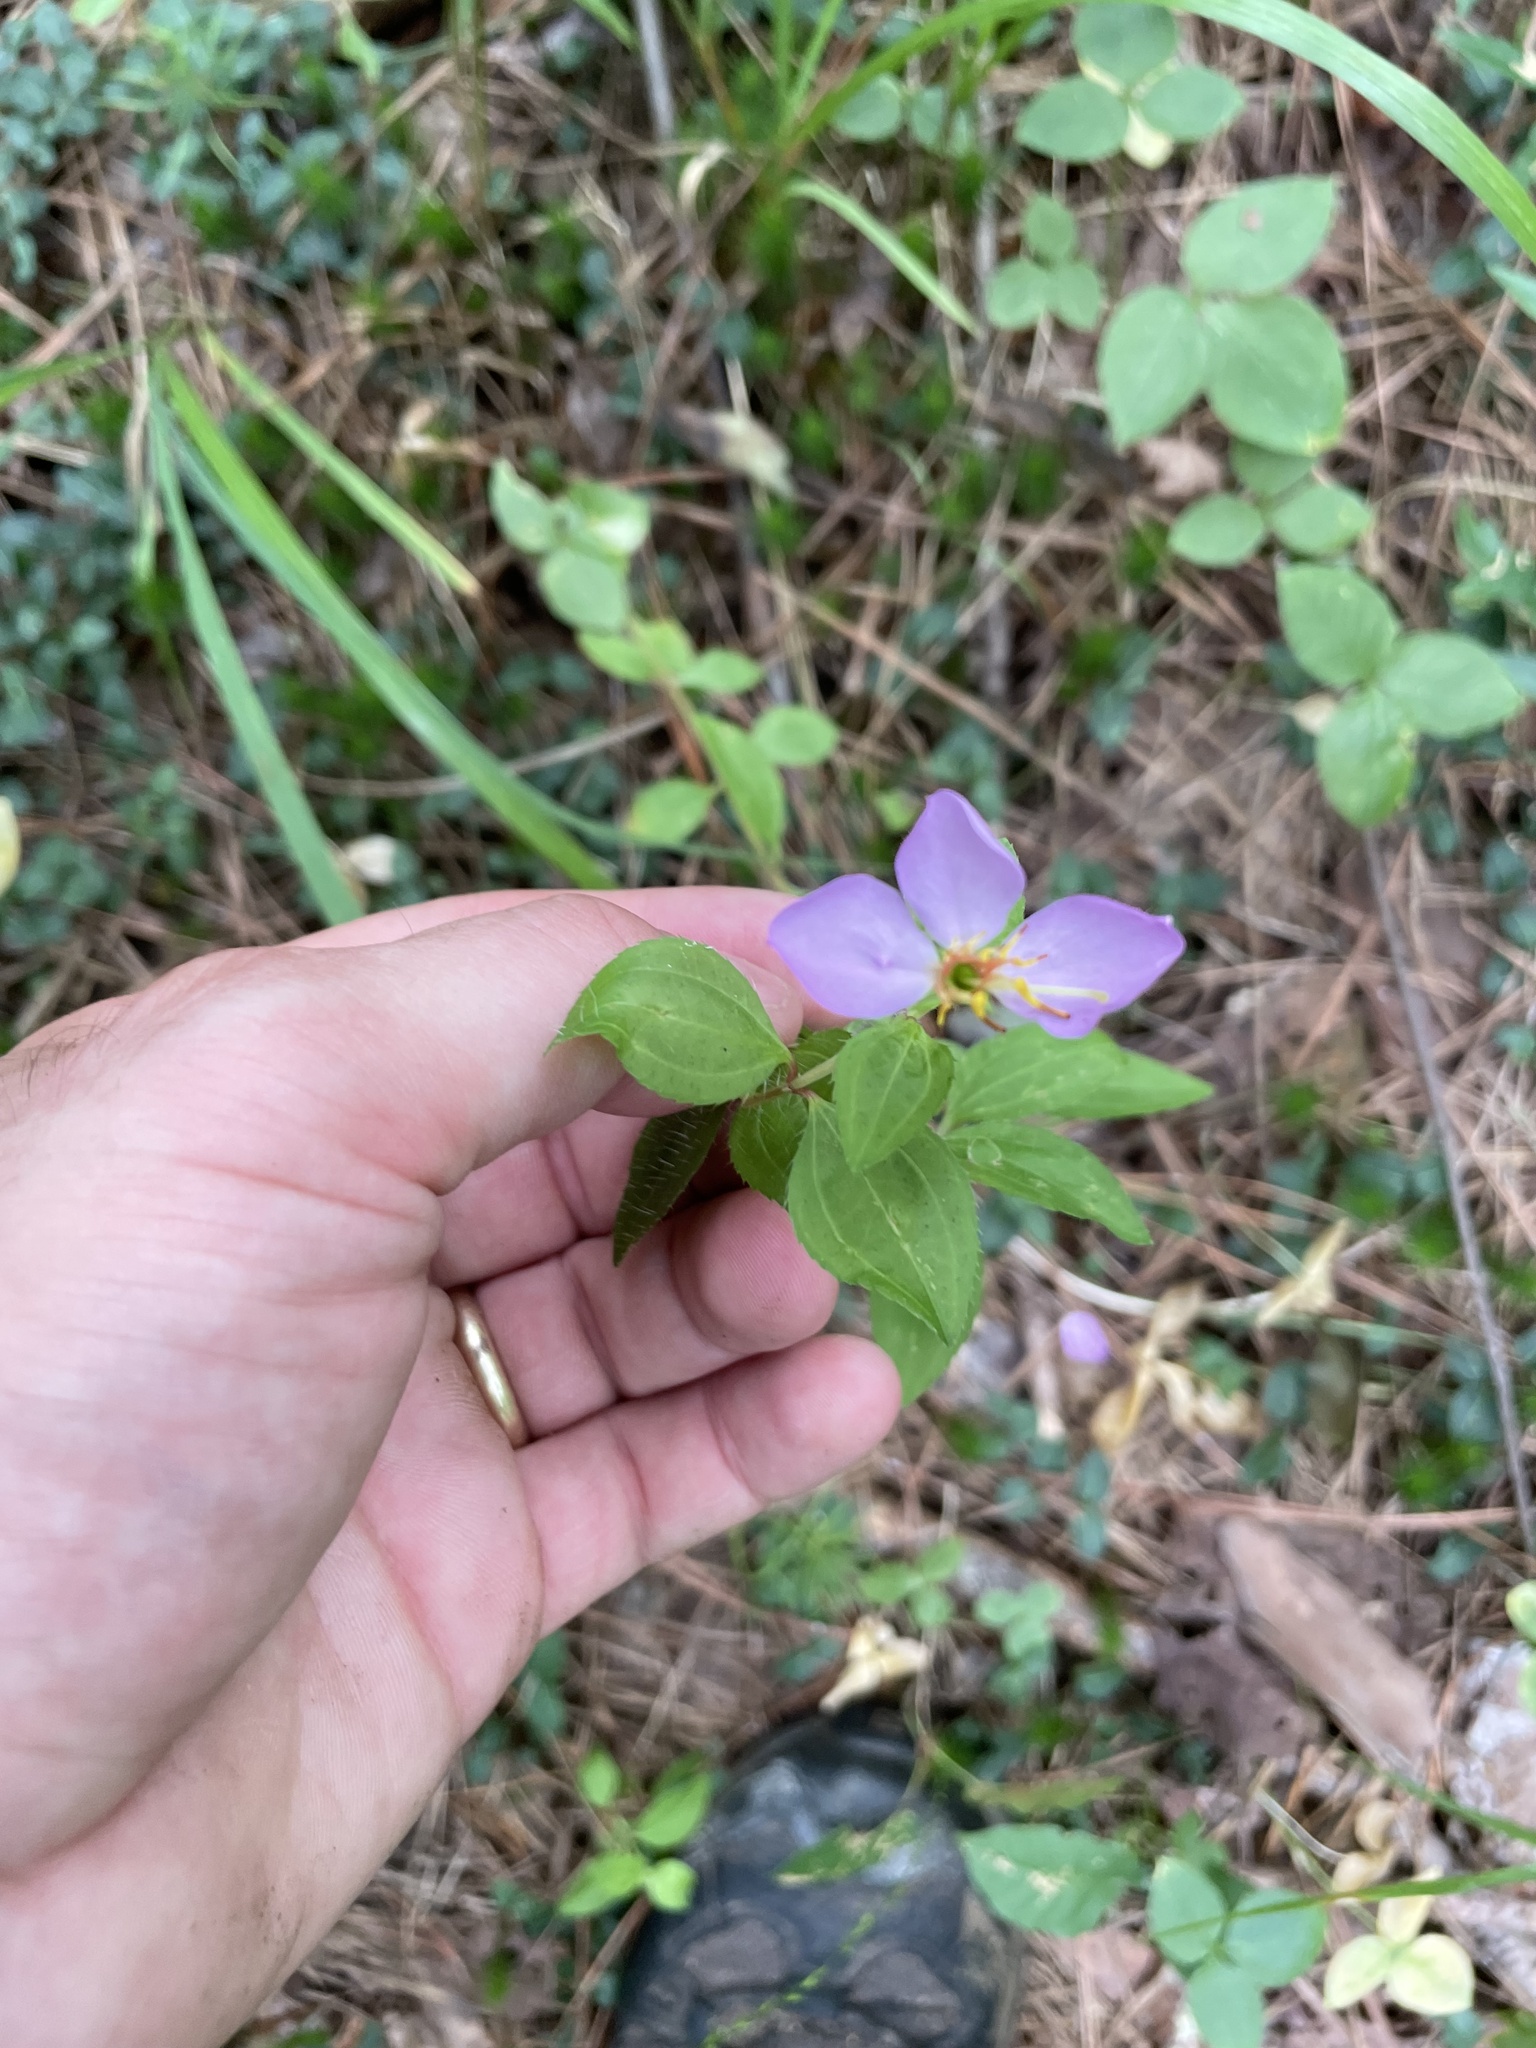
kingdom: Plantae
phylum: Tracheophyta
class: Magnoliopsida
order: Myrtales
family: Melastomataceae
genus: Rhexia
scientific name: Rhexia mariana
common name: Dull meadow-pitcher
